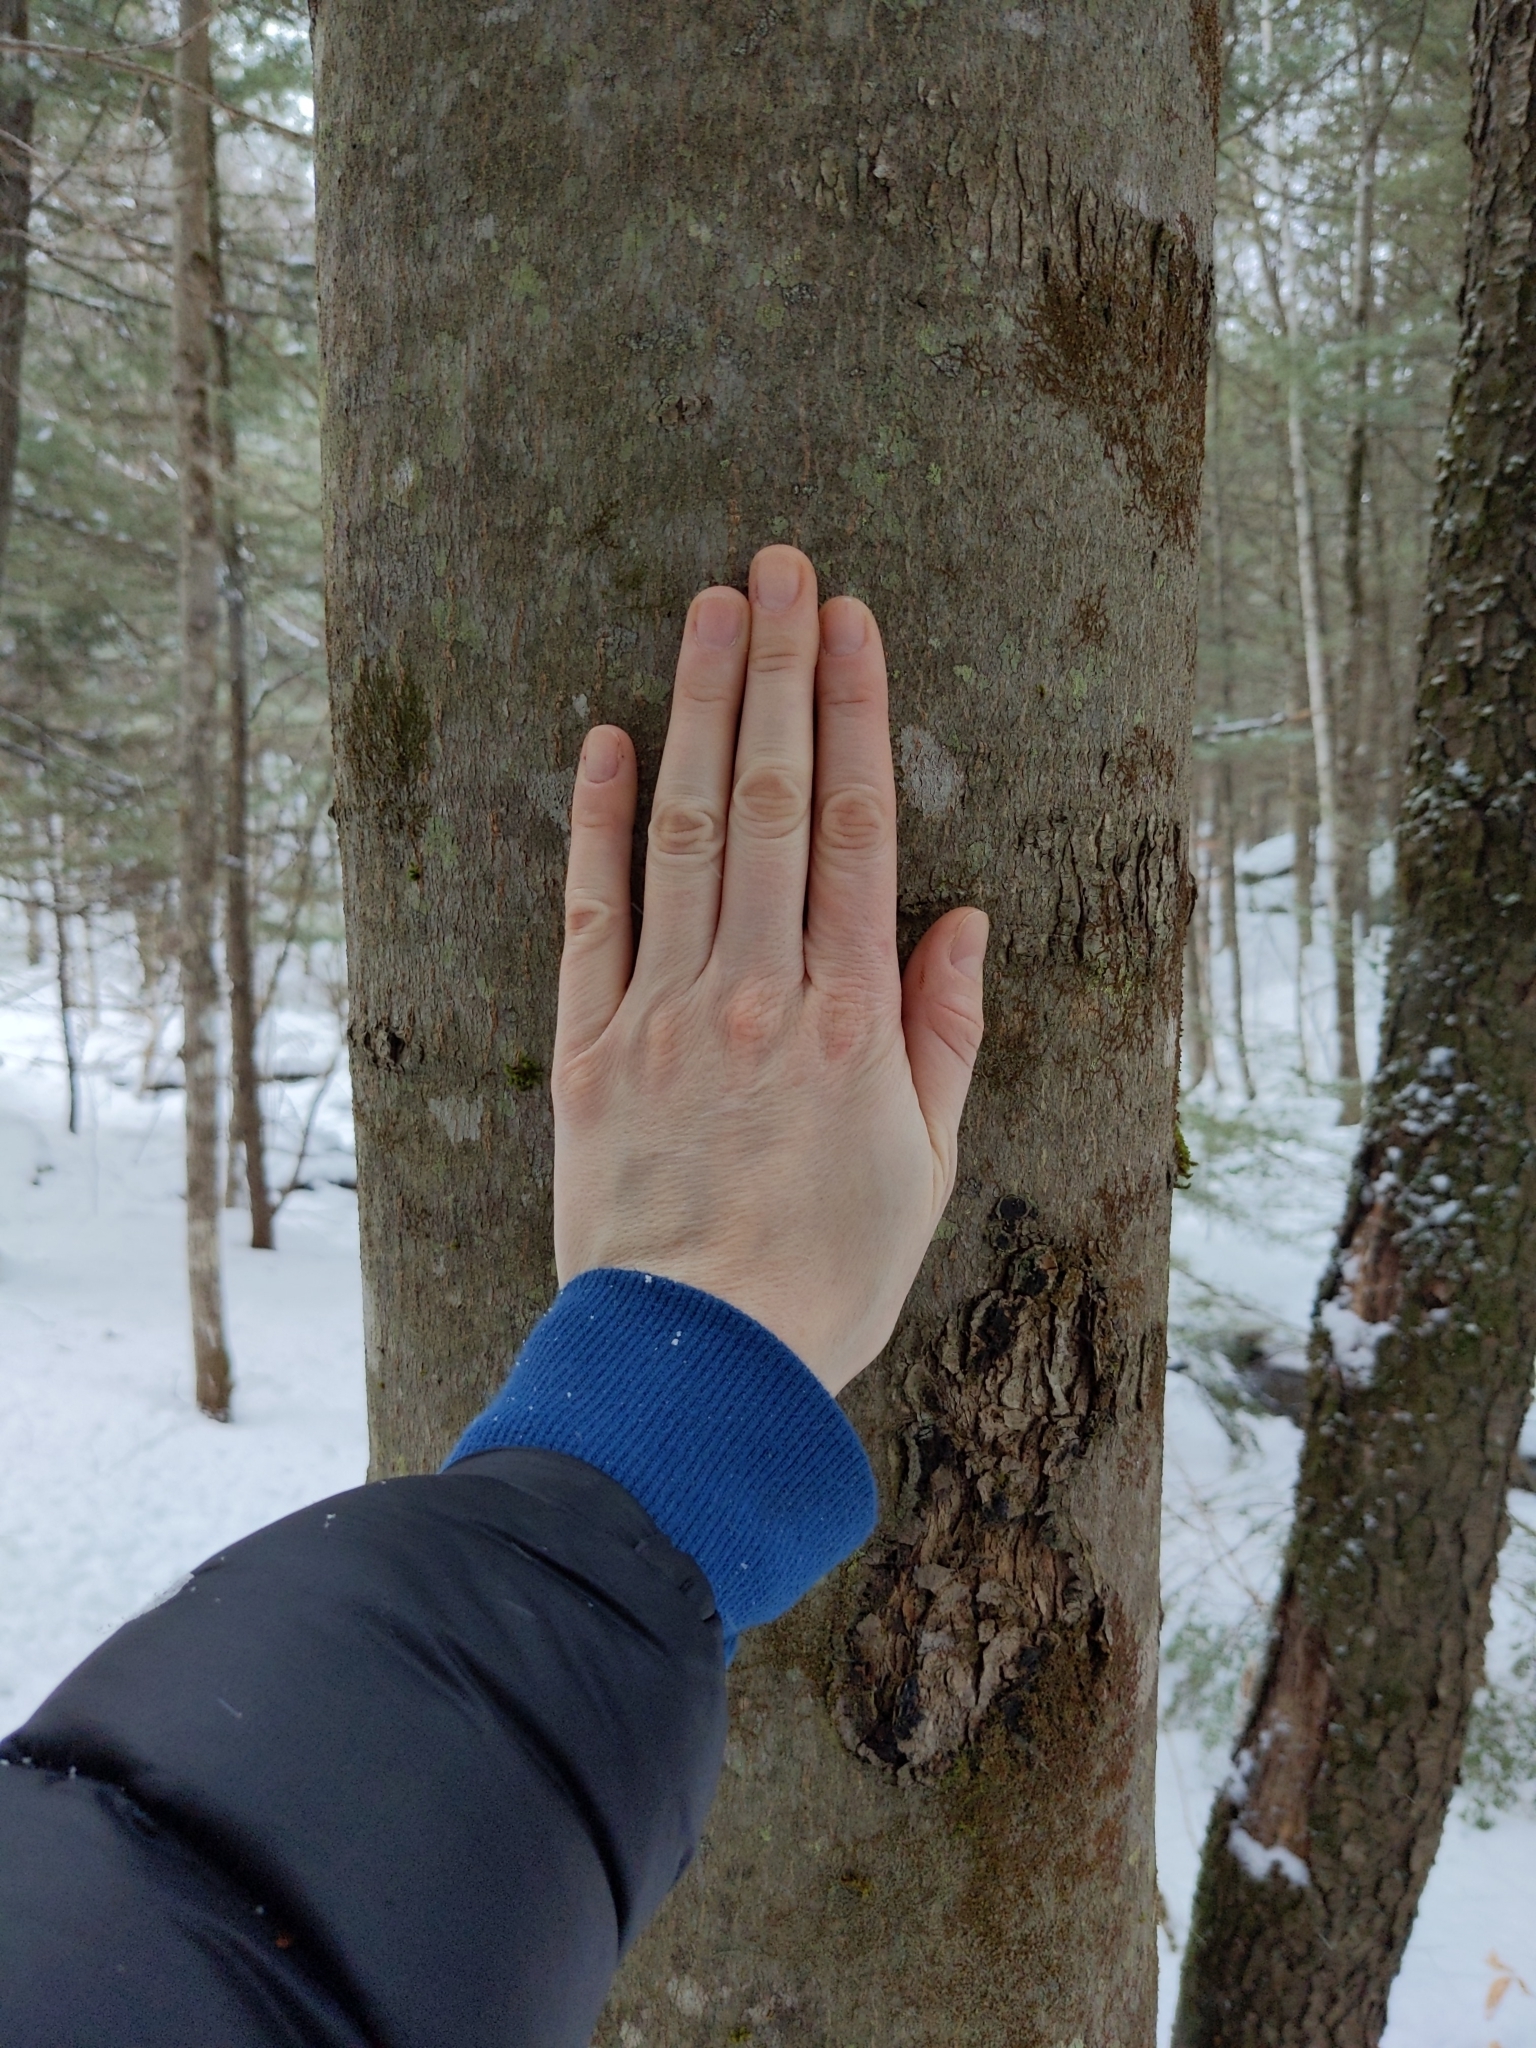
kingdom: Plantae
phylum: Tracheophyta
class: Magnoliopsida
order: Fagales
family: Fagaceae
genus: Fagus
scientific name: Fagus grandifolia
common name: American beech
